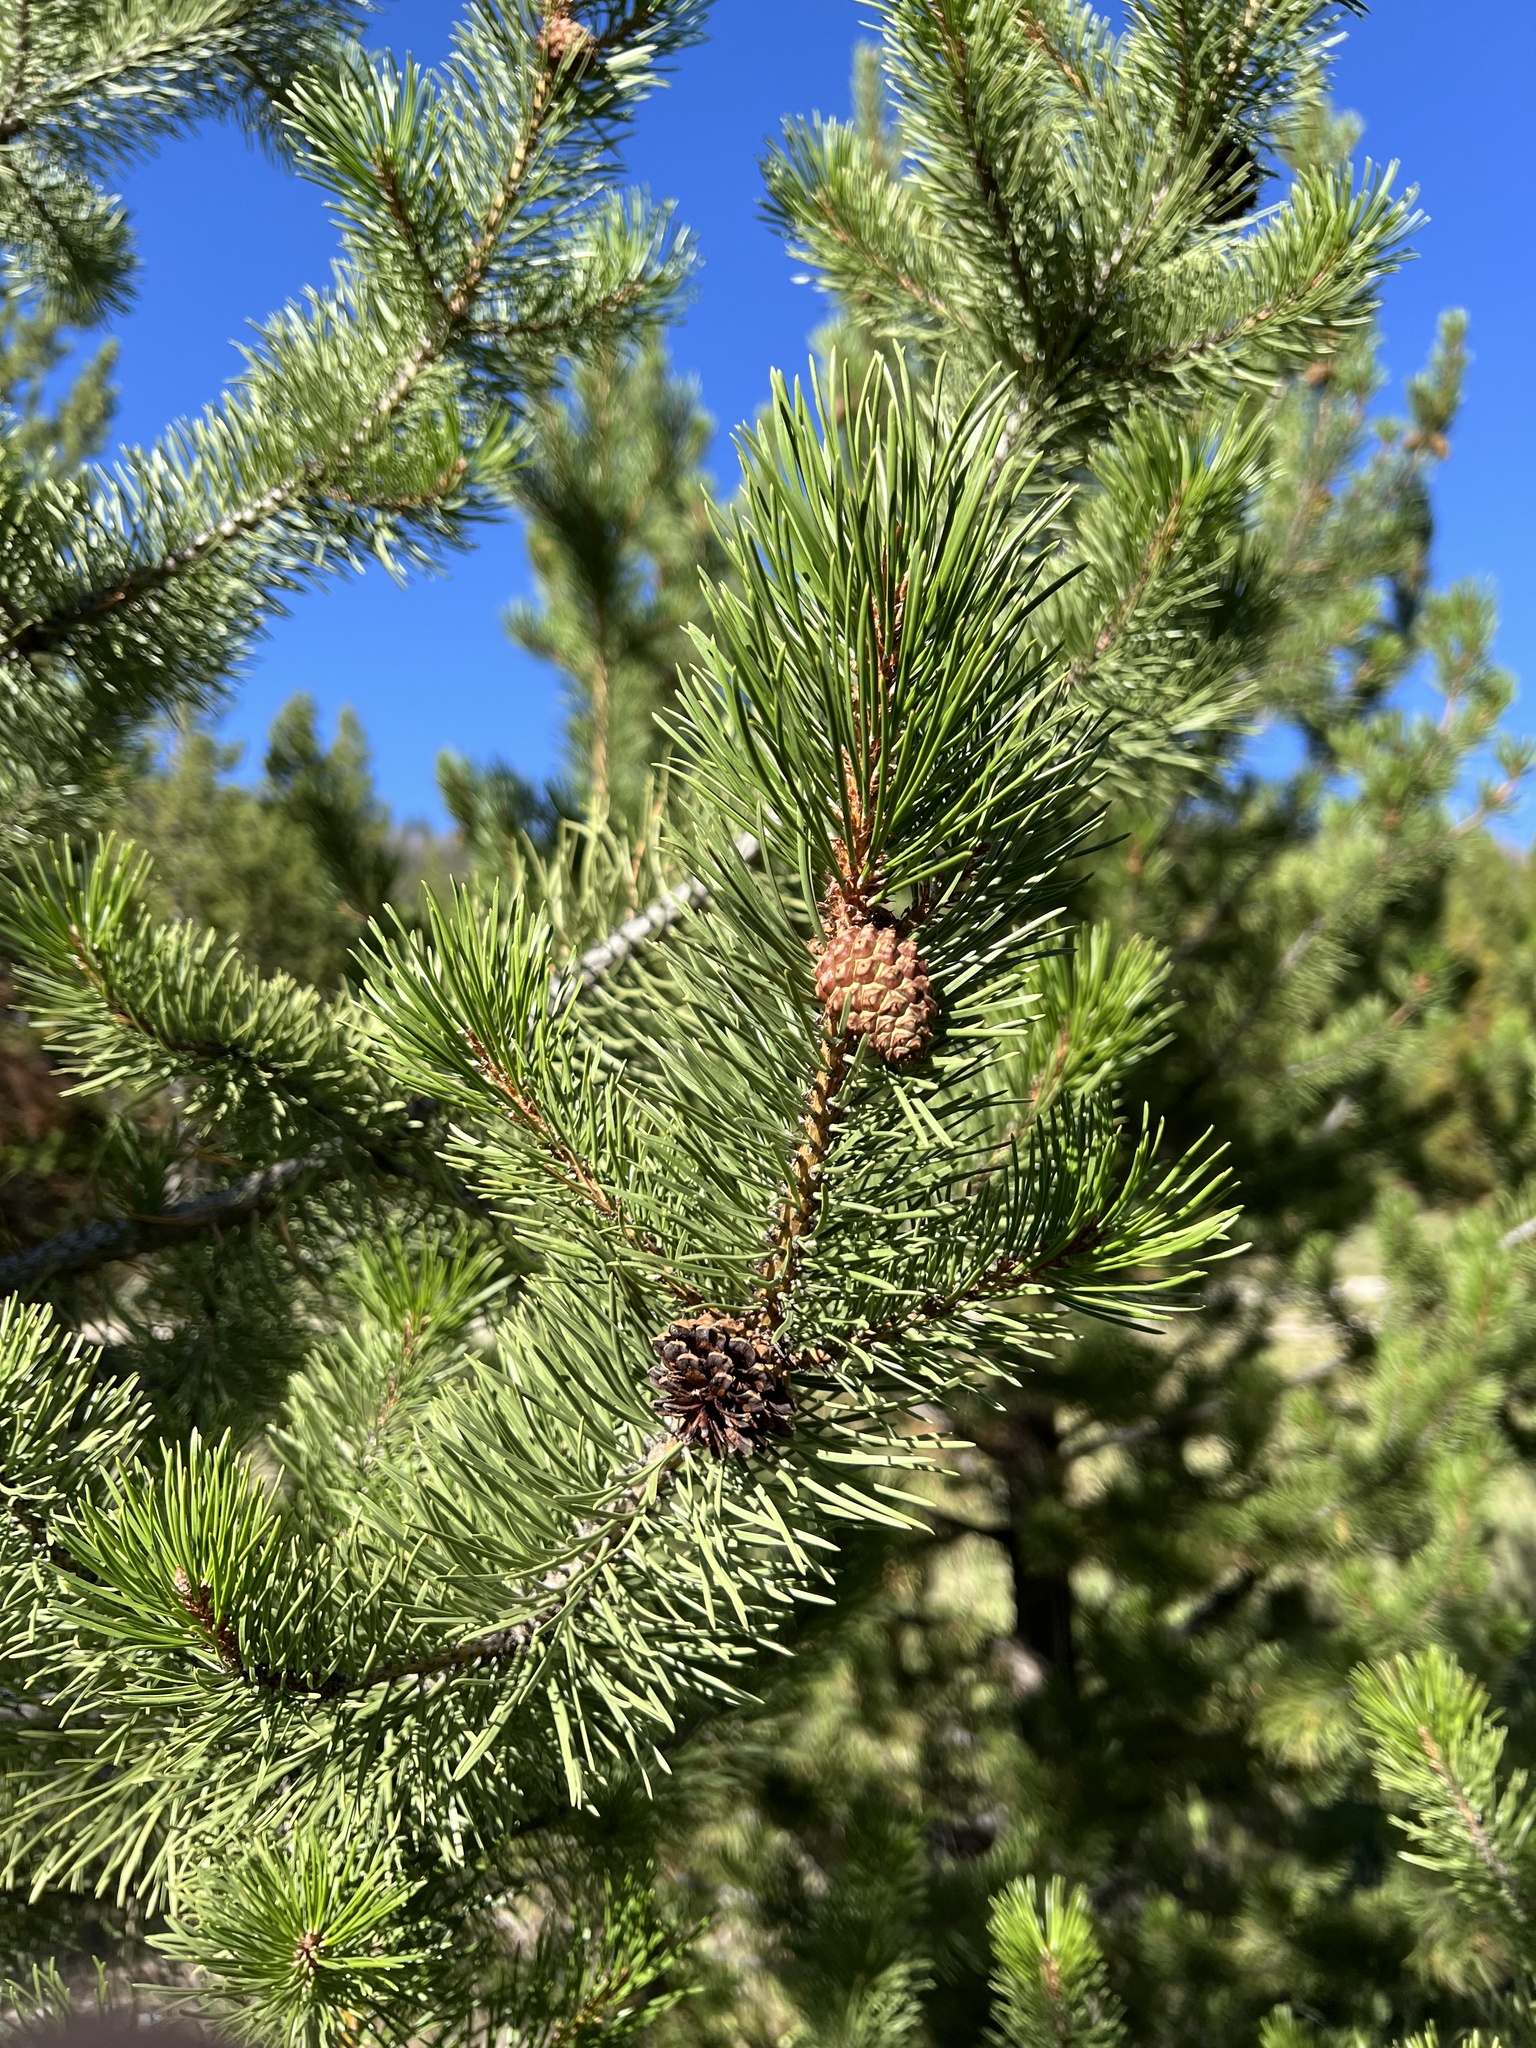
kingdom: Plantae
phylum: Tracheophyta
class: Pinopsida
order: Pinales
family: Pinaceae
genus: Pinus
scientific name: Pinus contorta
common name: Lodgepole pine
